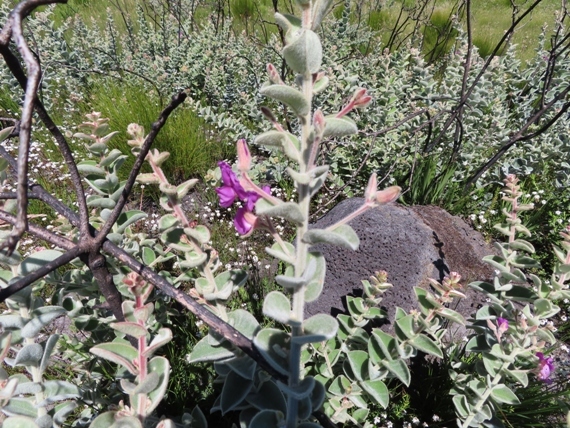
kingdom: Plantae
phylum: Tracheophyta
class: Magnoliopsida
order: Fabales
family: Fabaceae
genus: Podalyria
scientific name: Podalyria cordata
